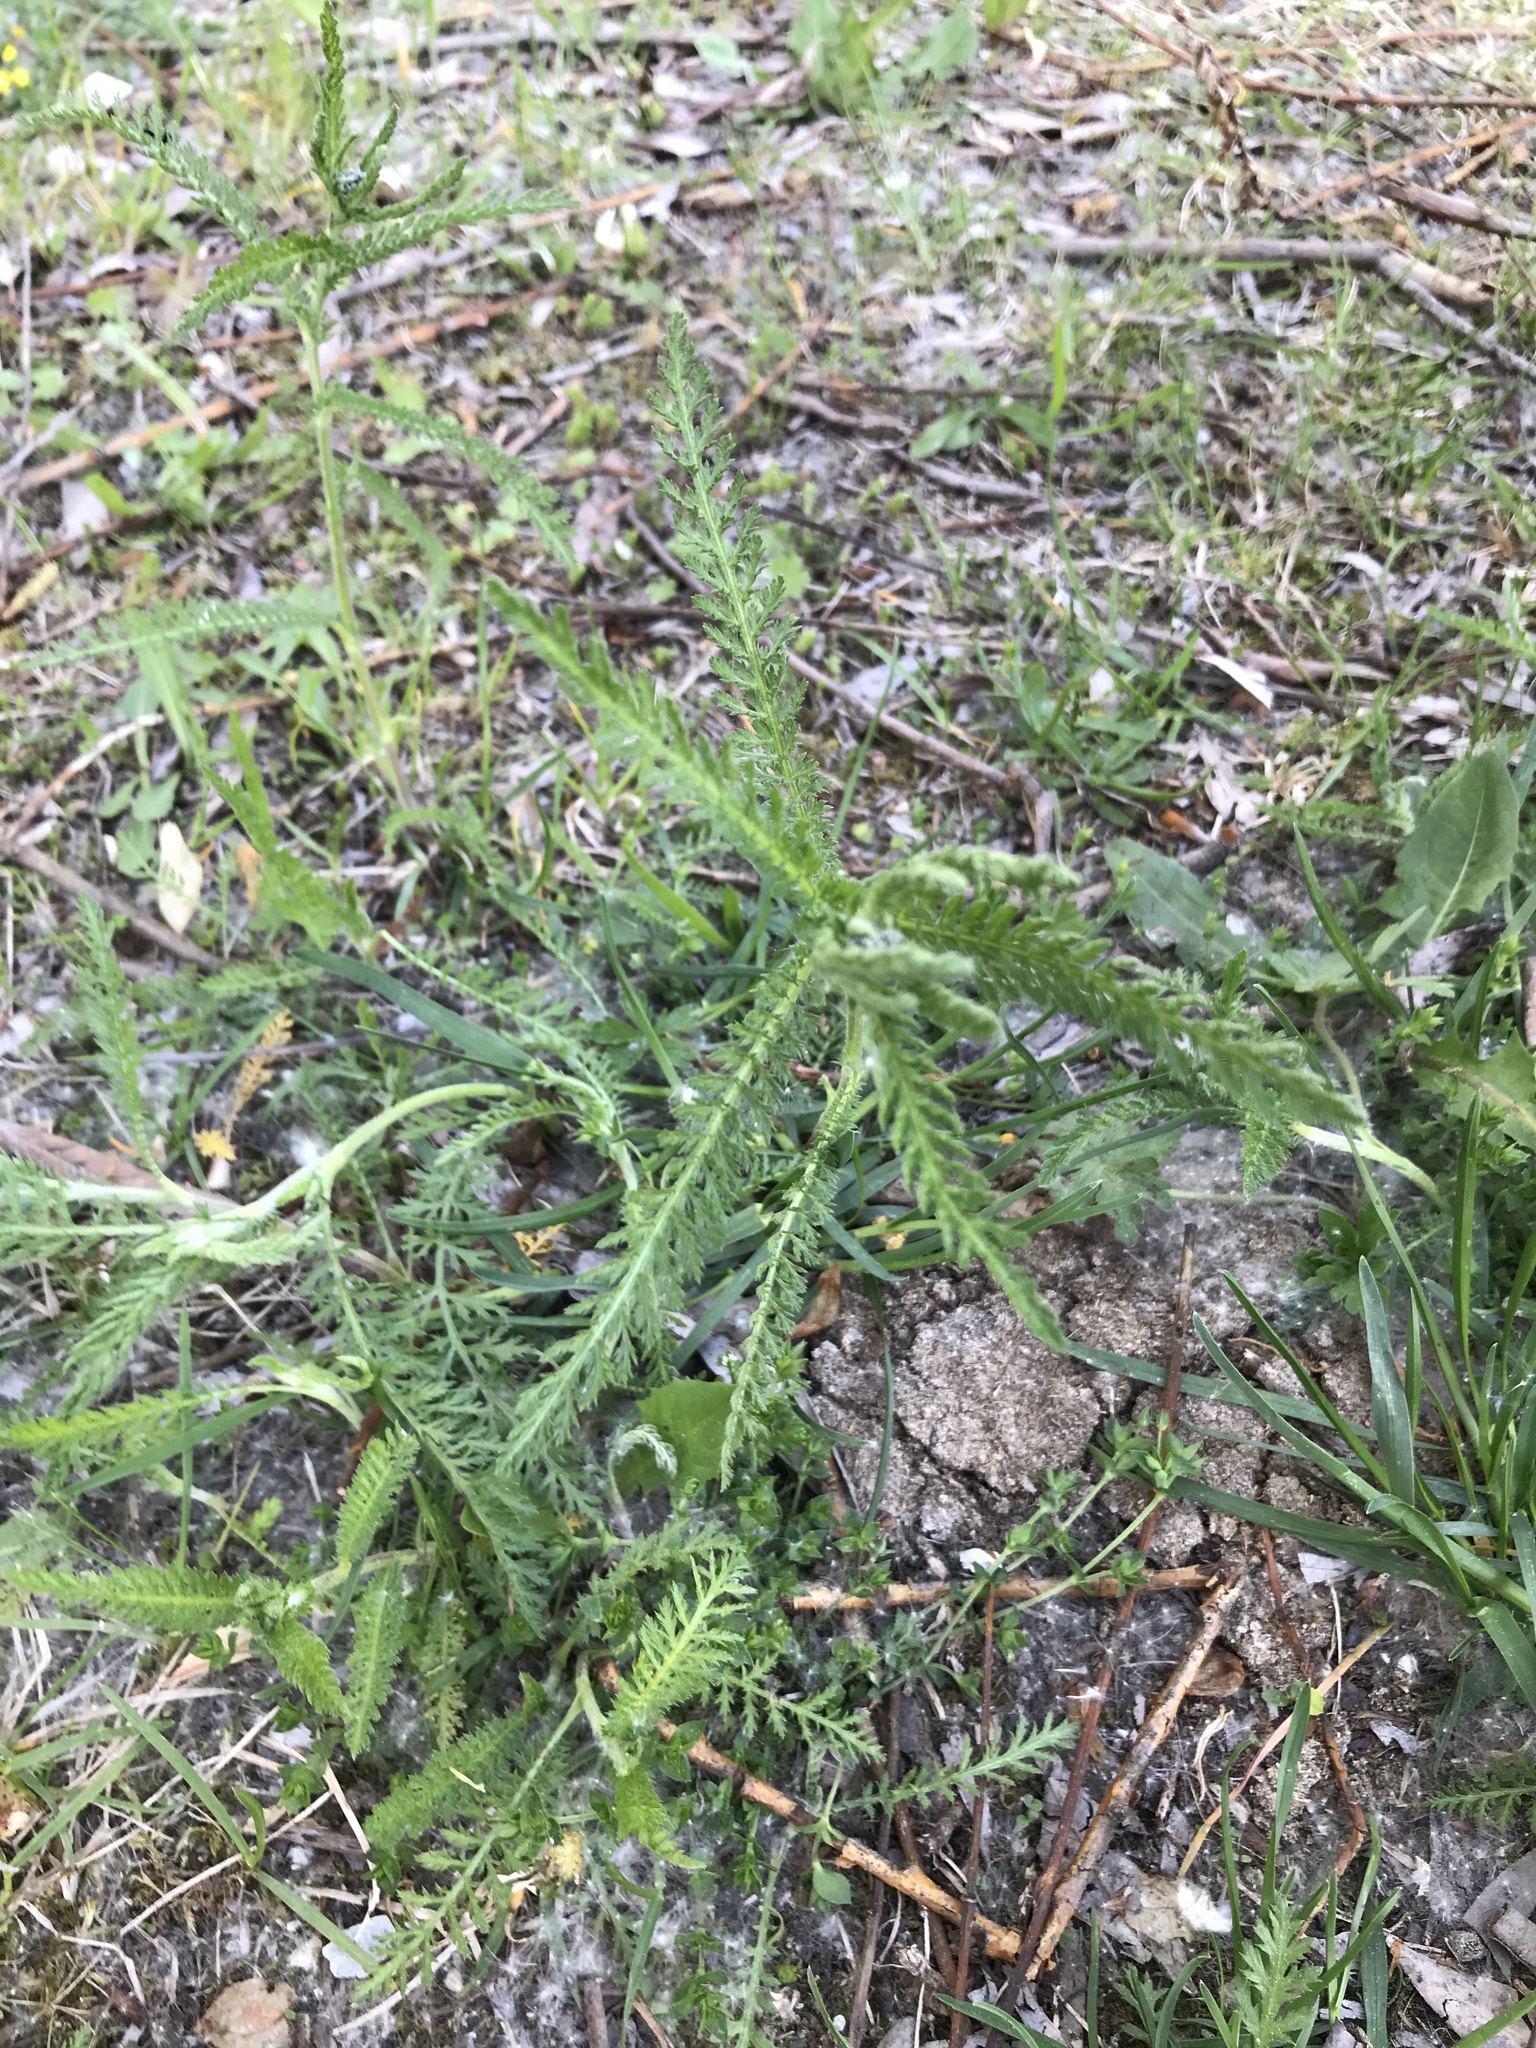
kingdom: Plantae
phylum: Tracheophyta
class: Magnoliopsida
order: Asterales
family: Asteraceae
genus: Achillea
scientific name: Achillea millefolium
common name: Yarrow
